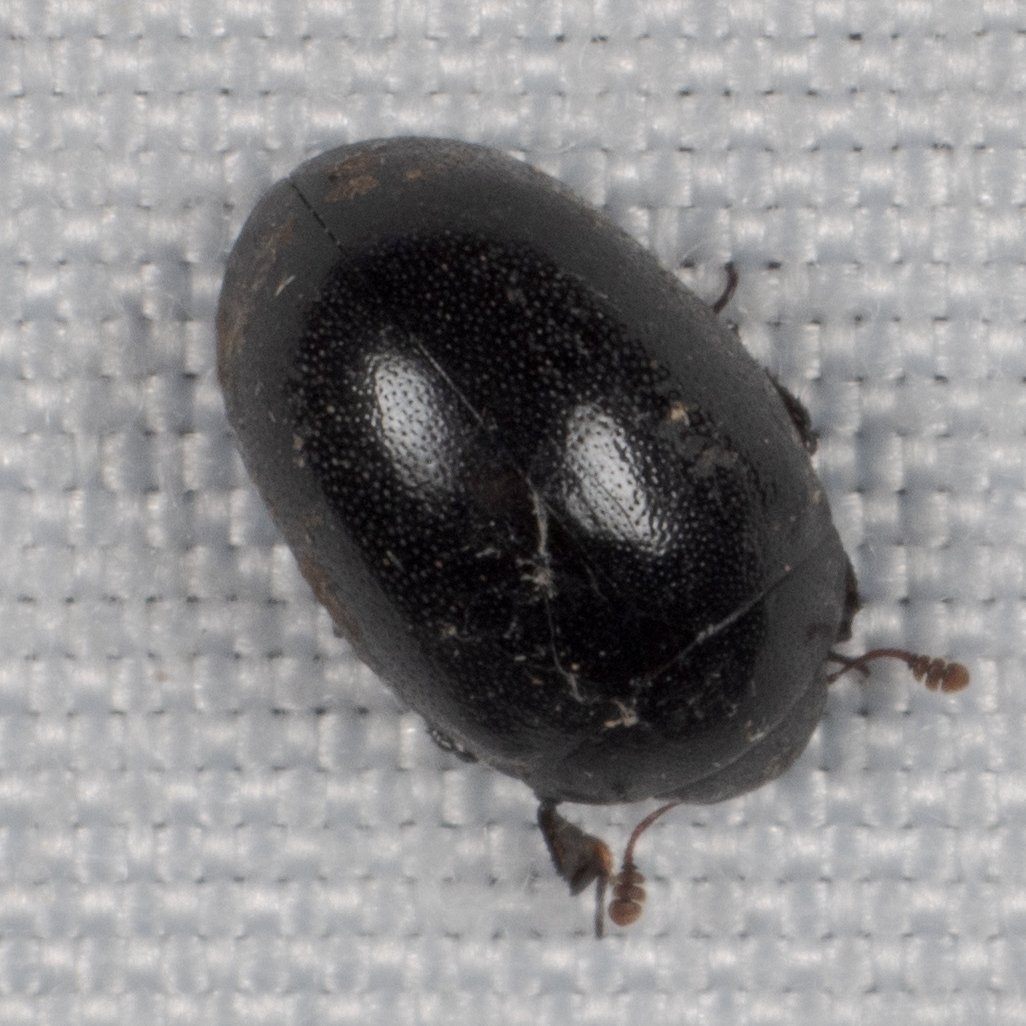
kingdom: Animalia
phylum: Arthropoda
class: Insecta
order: Coleoptera
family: Nosodendridae
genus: Nosodendron
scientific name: Nosodendron unicolor
